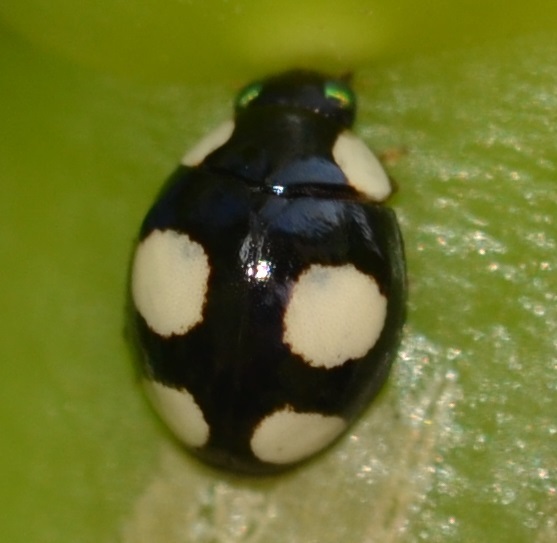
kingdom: Animalia
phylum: Arthropoda
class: Insecta
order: Coleoptera
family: Coccinellidae
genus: Hyperaspis
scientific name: Hyperaspis silvestrii
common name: Lady beetle
